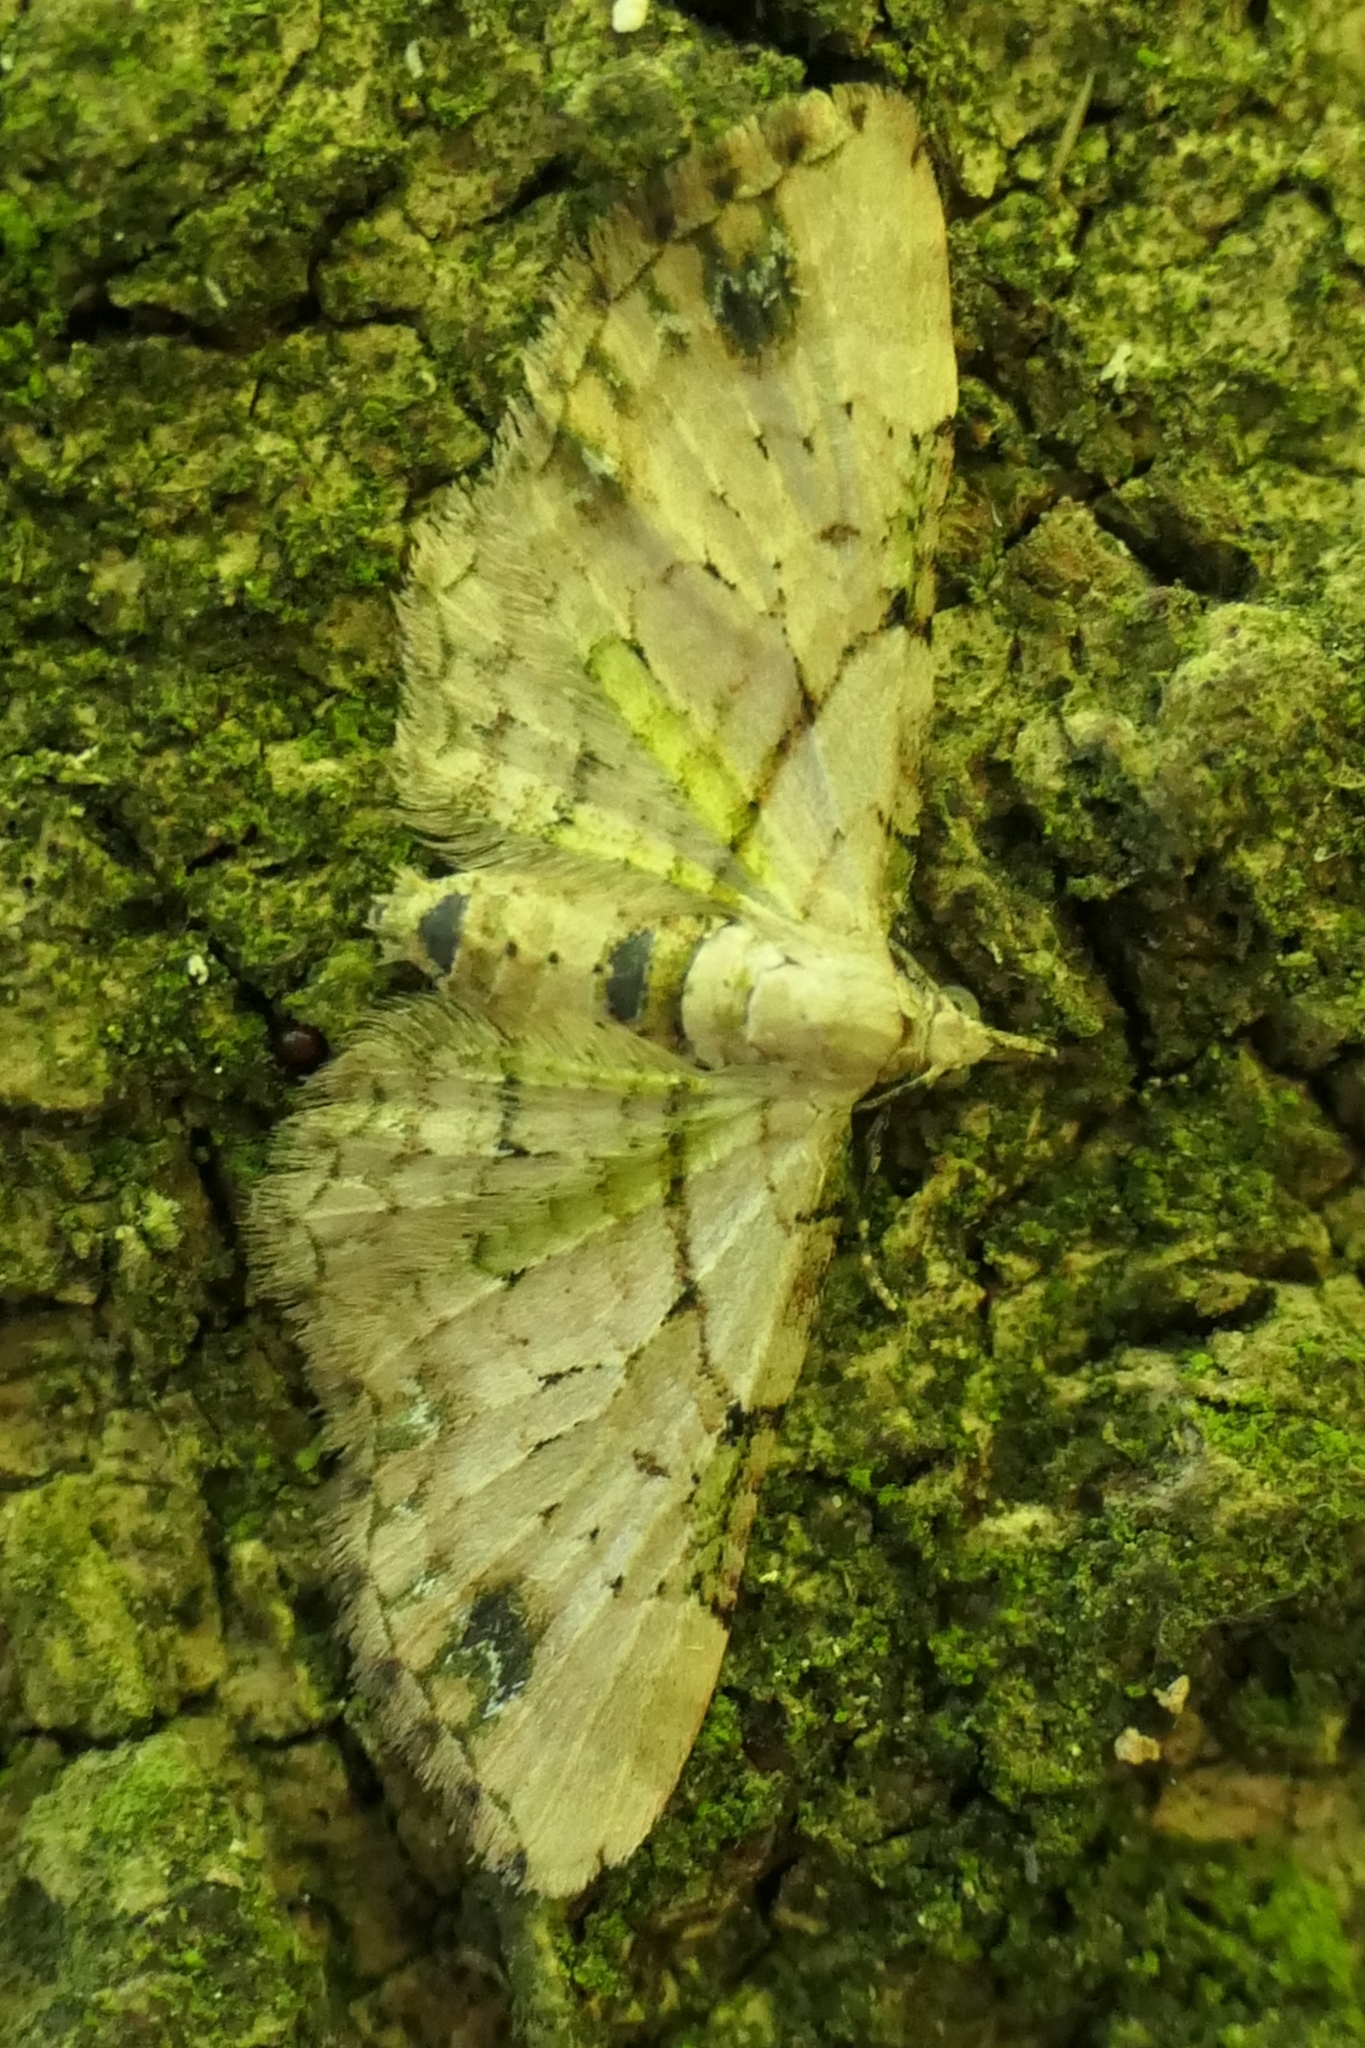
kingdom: Animalia
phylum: Arthropoda
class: Insecta
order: Lepidoptera
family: Geometridae
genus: Chloroclystis
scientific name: Chloroclystis
